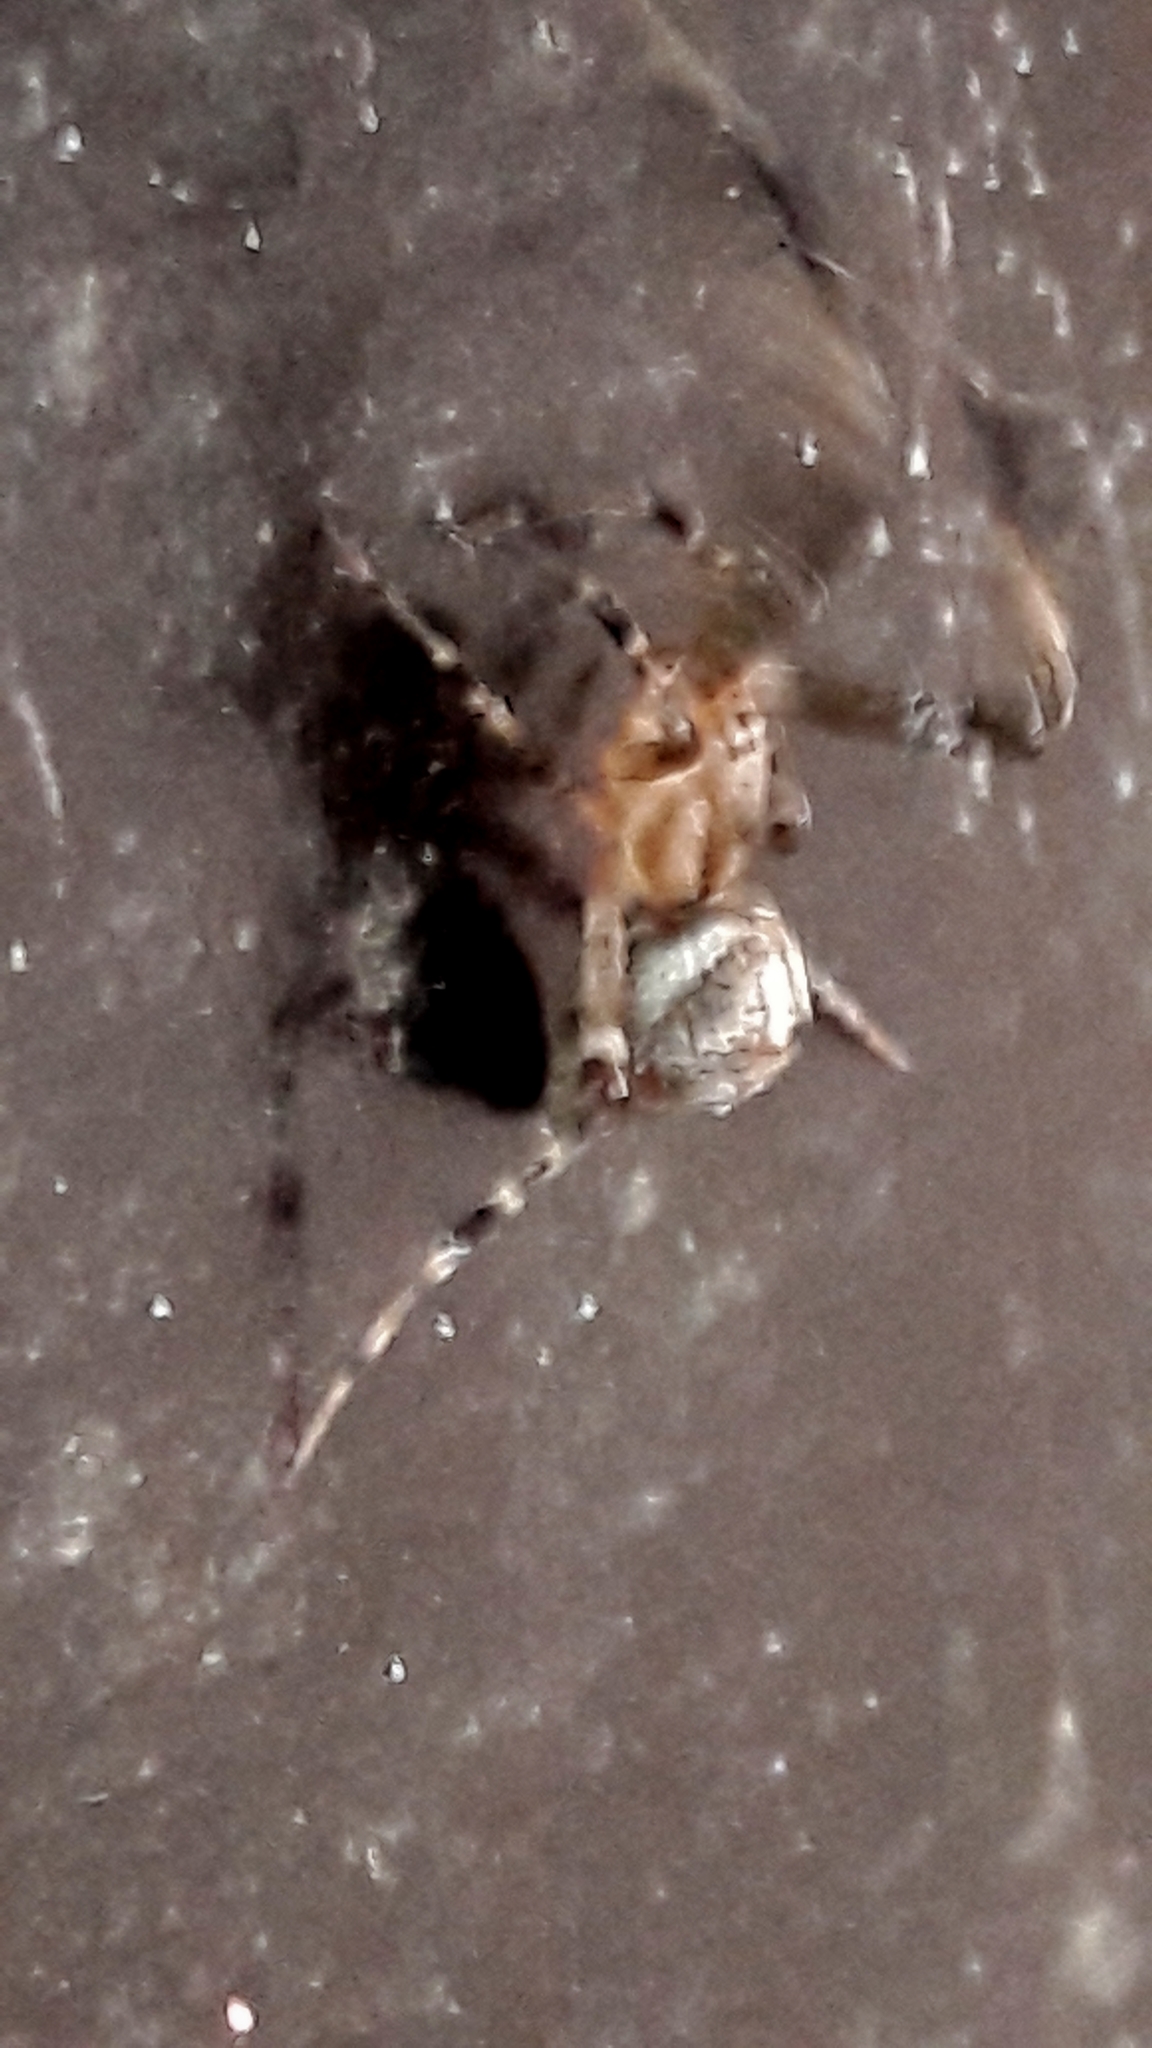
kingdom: Animalia
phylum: Arthropoda
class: Arachnida
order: Araneae
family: Uloboridae
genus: Zosis
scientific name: Zosis geniculata
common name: Hackled orb weavers
